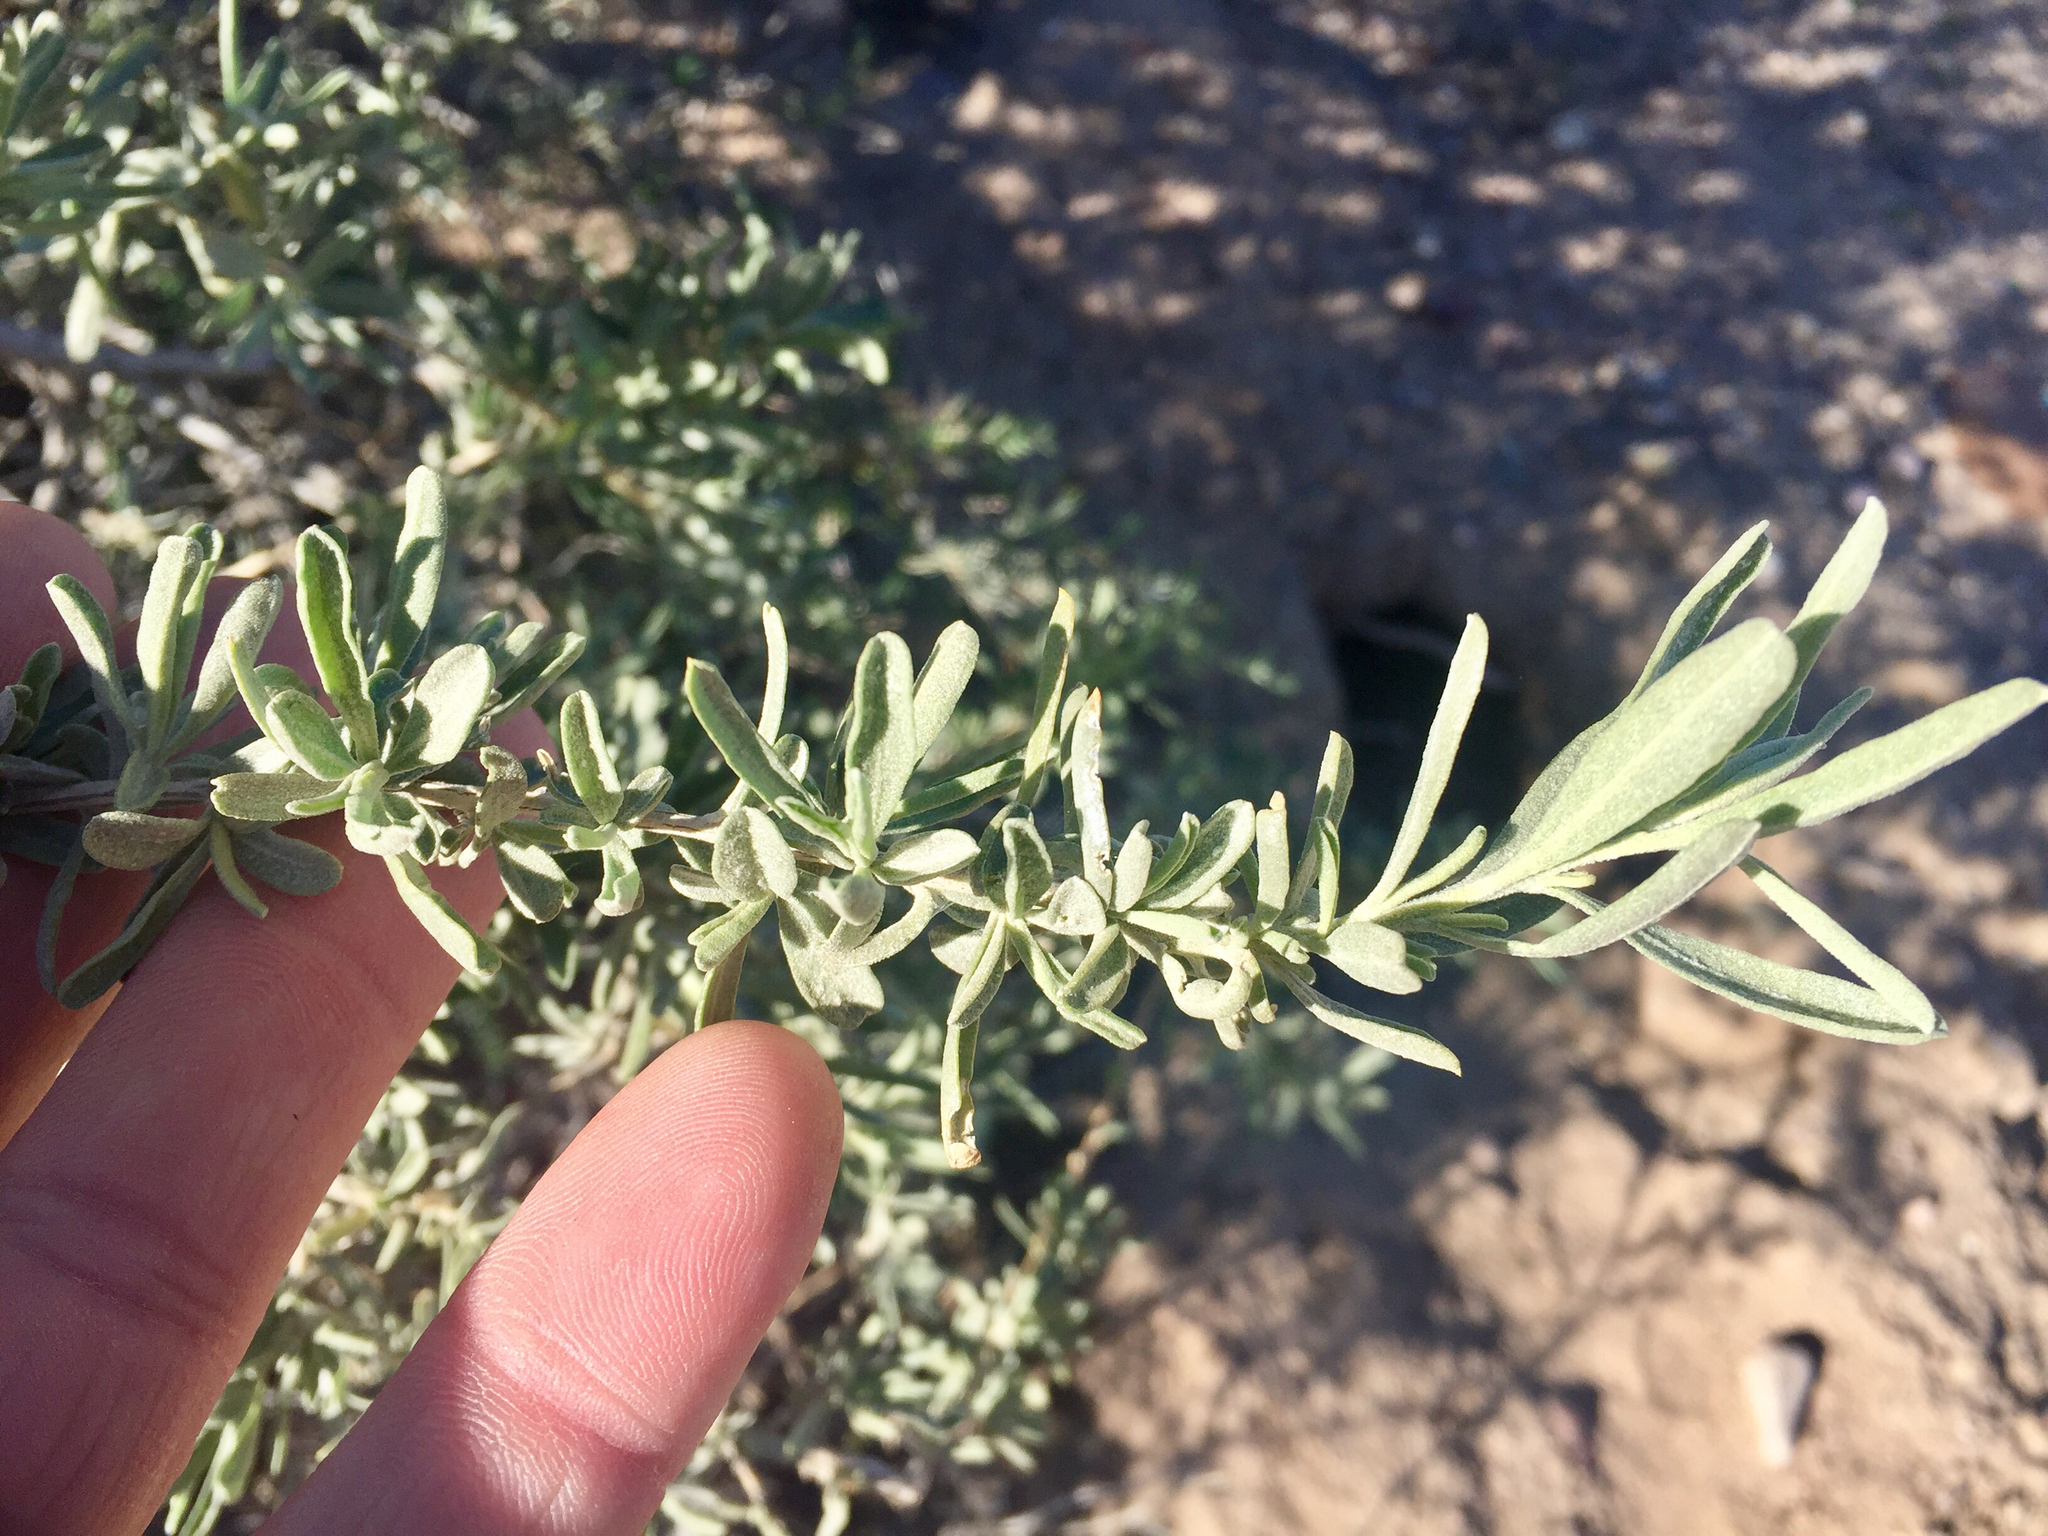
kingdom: Plantae
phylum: Tracheophyta
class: Magnoliopsida
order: Caryophyllales
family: Amaranthaceae
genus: Atriplex
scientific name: Atriplex canescens
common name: Four-wing saltbush
